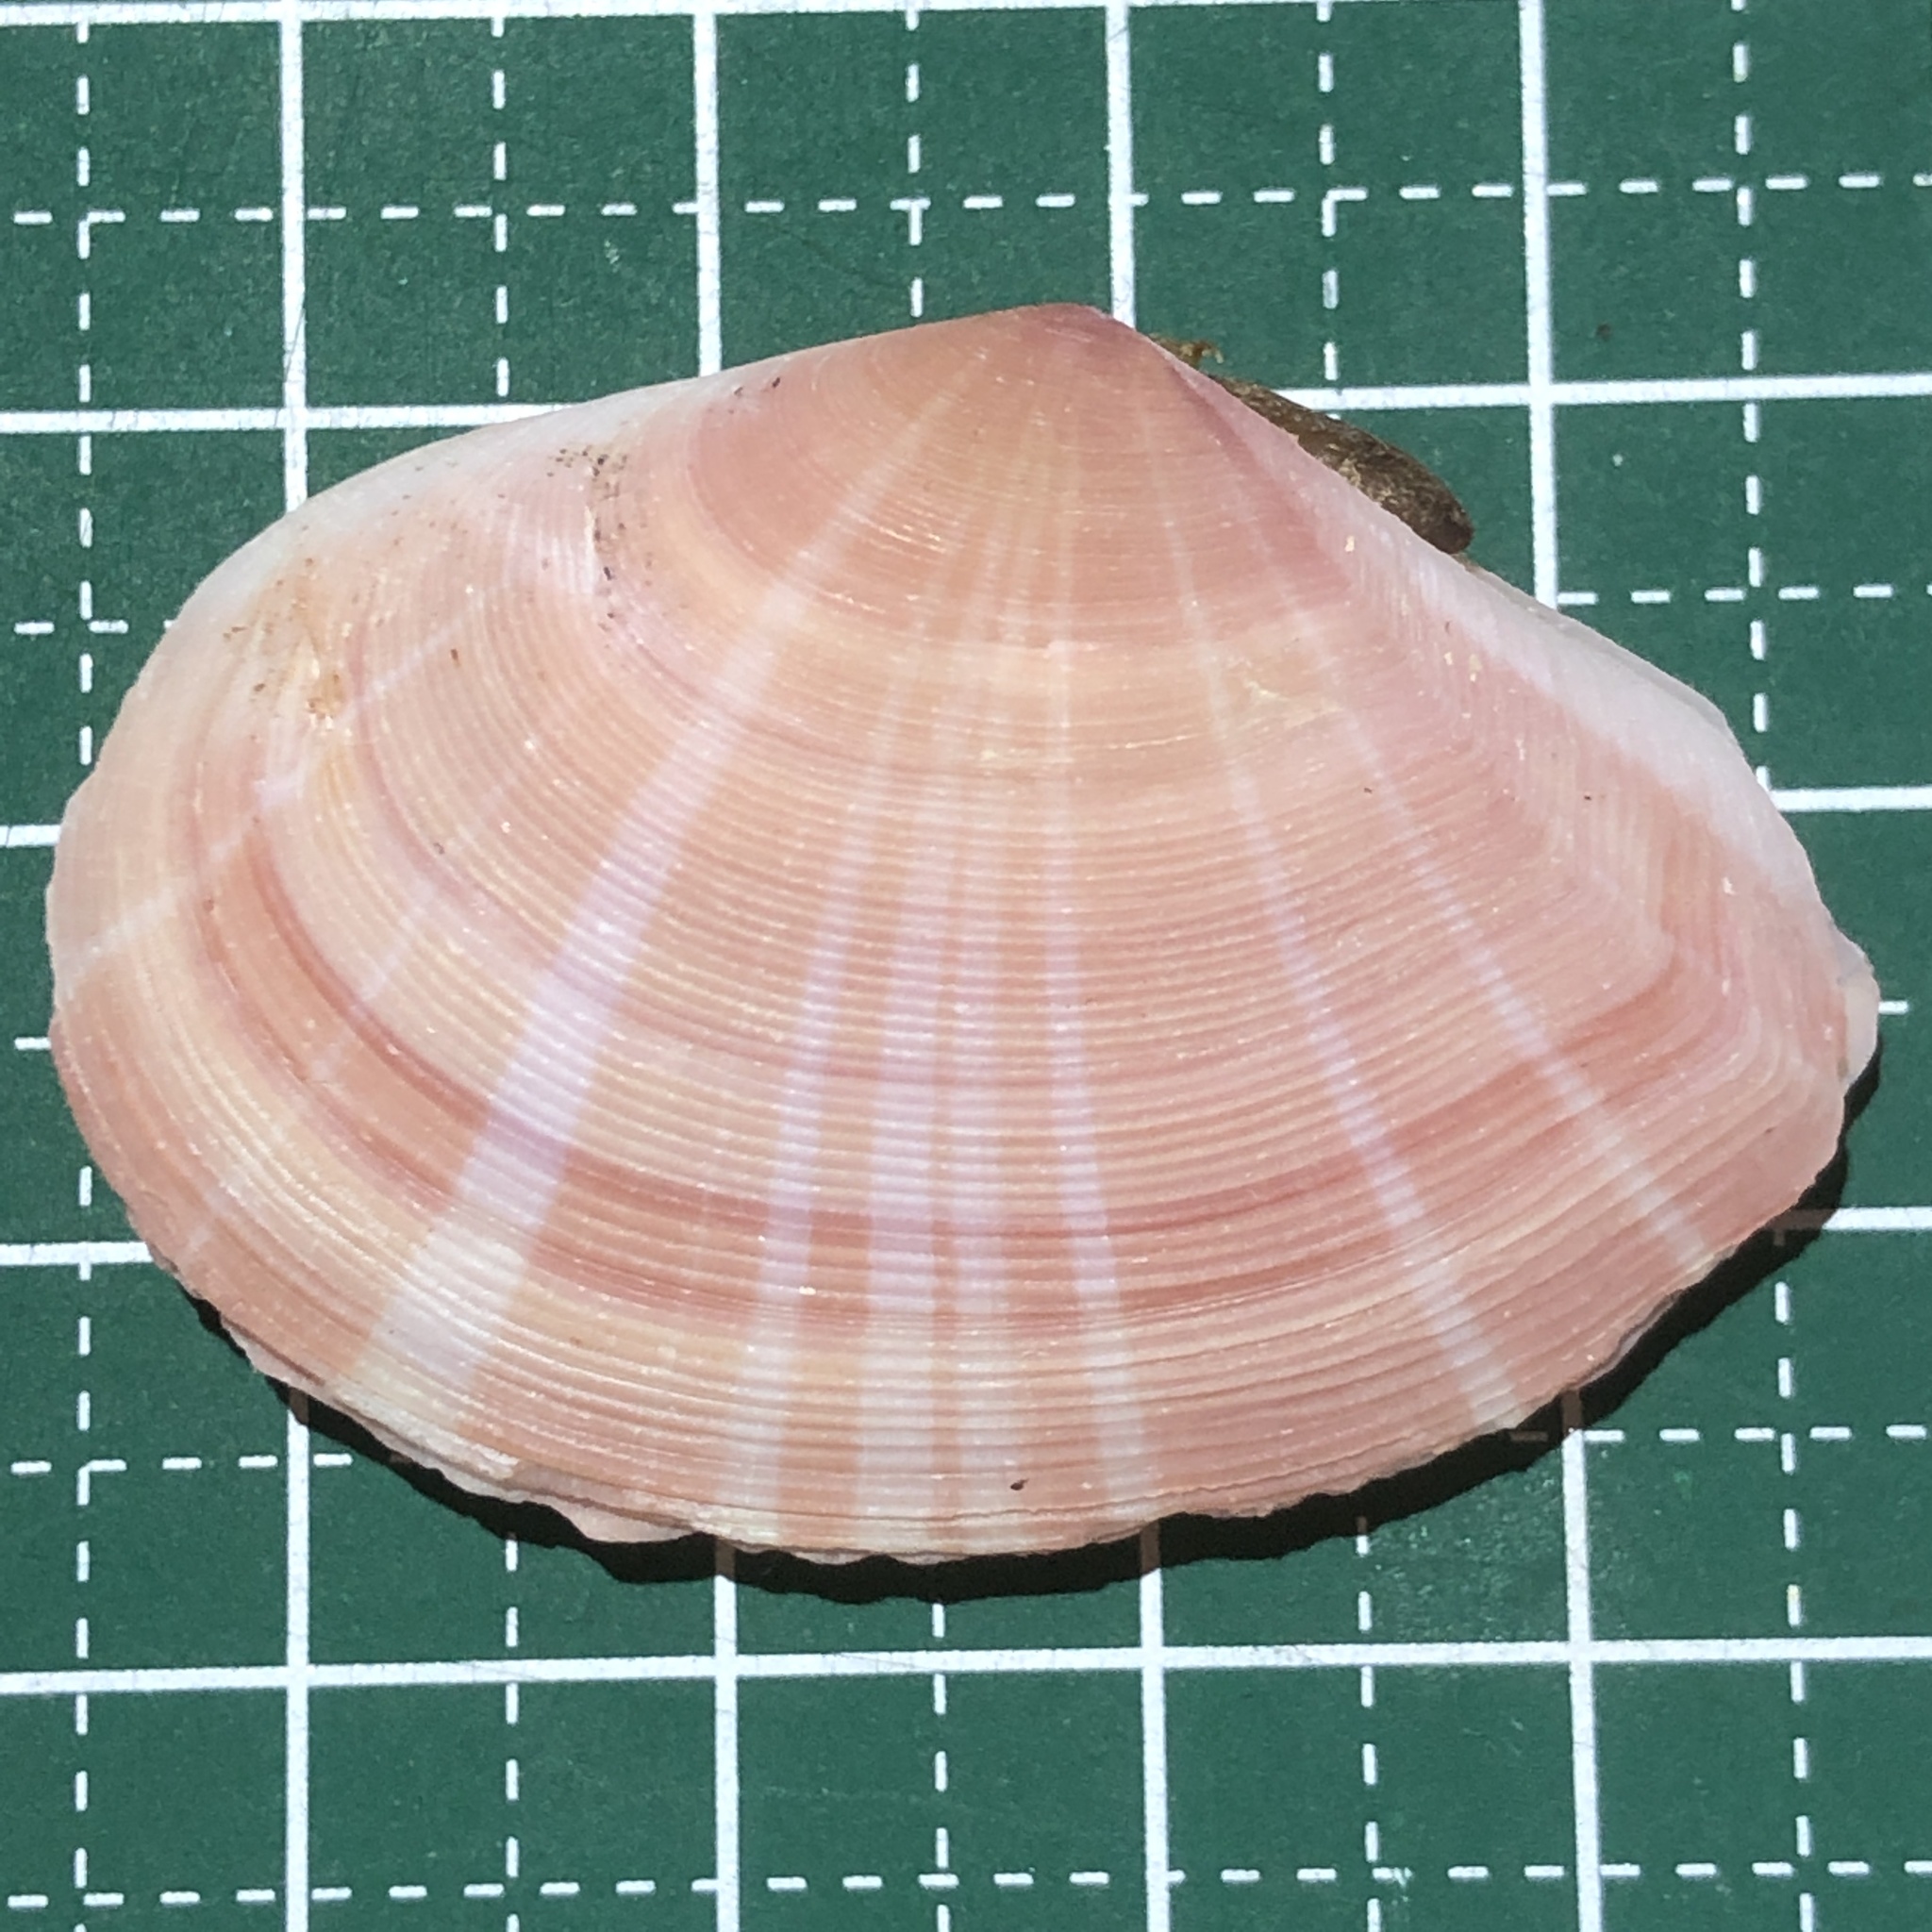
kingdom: Animalia
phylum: Mollusca
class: Bivalvia
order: Cardiida
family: Tellinidae
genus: Tellinella
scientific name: Tellinella virgata
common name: Striped tellin
